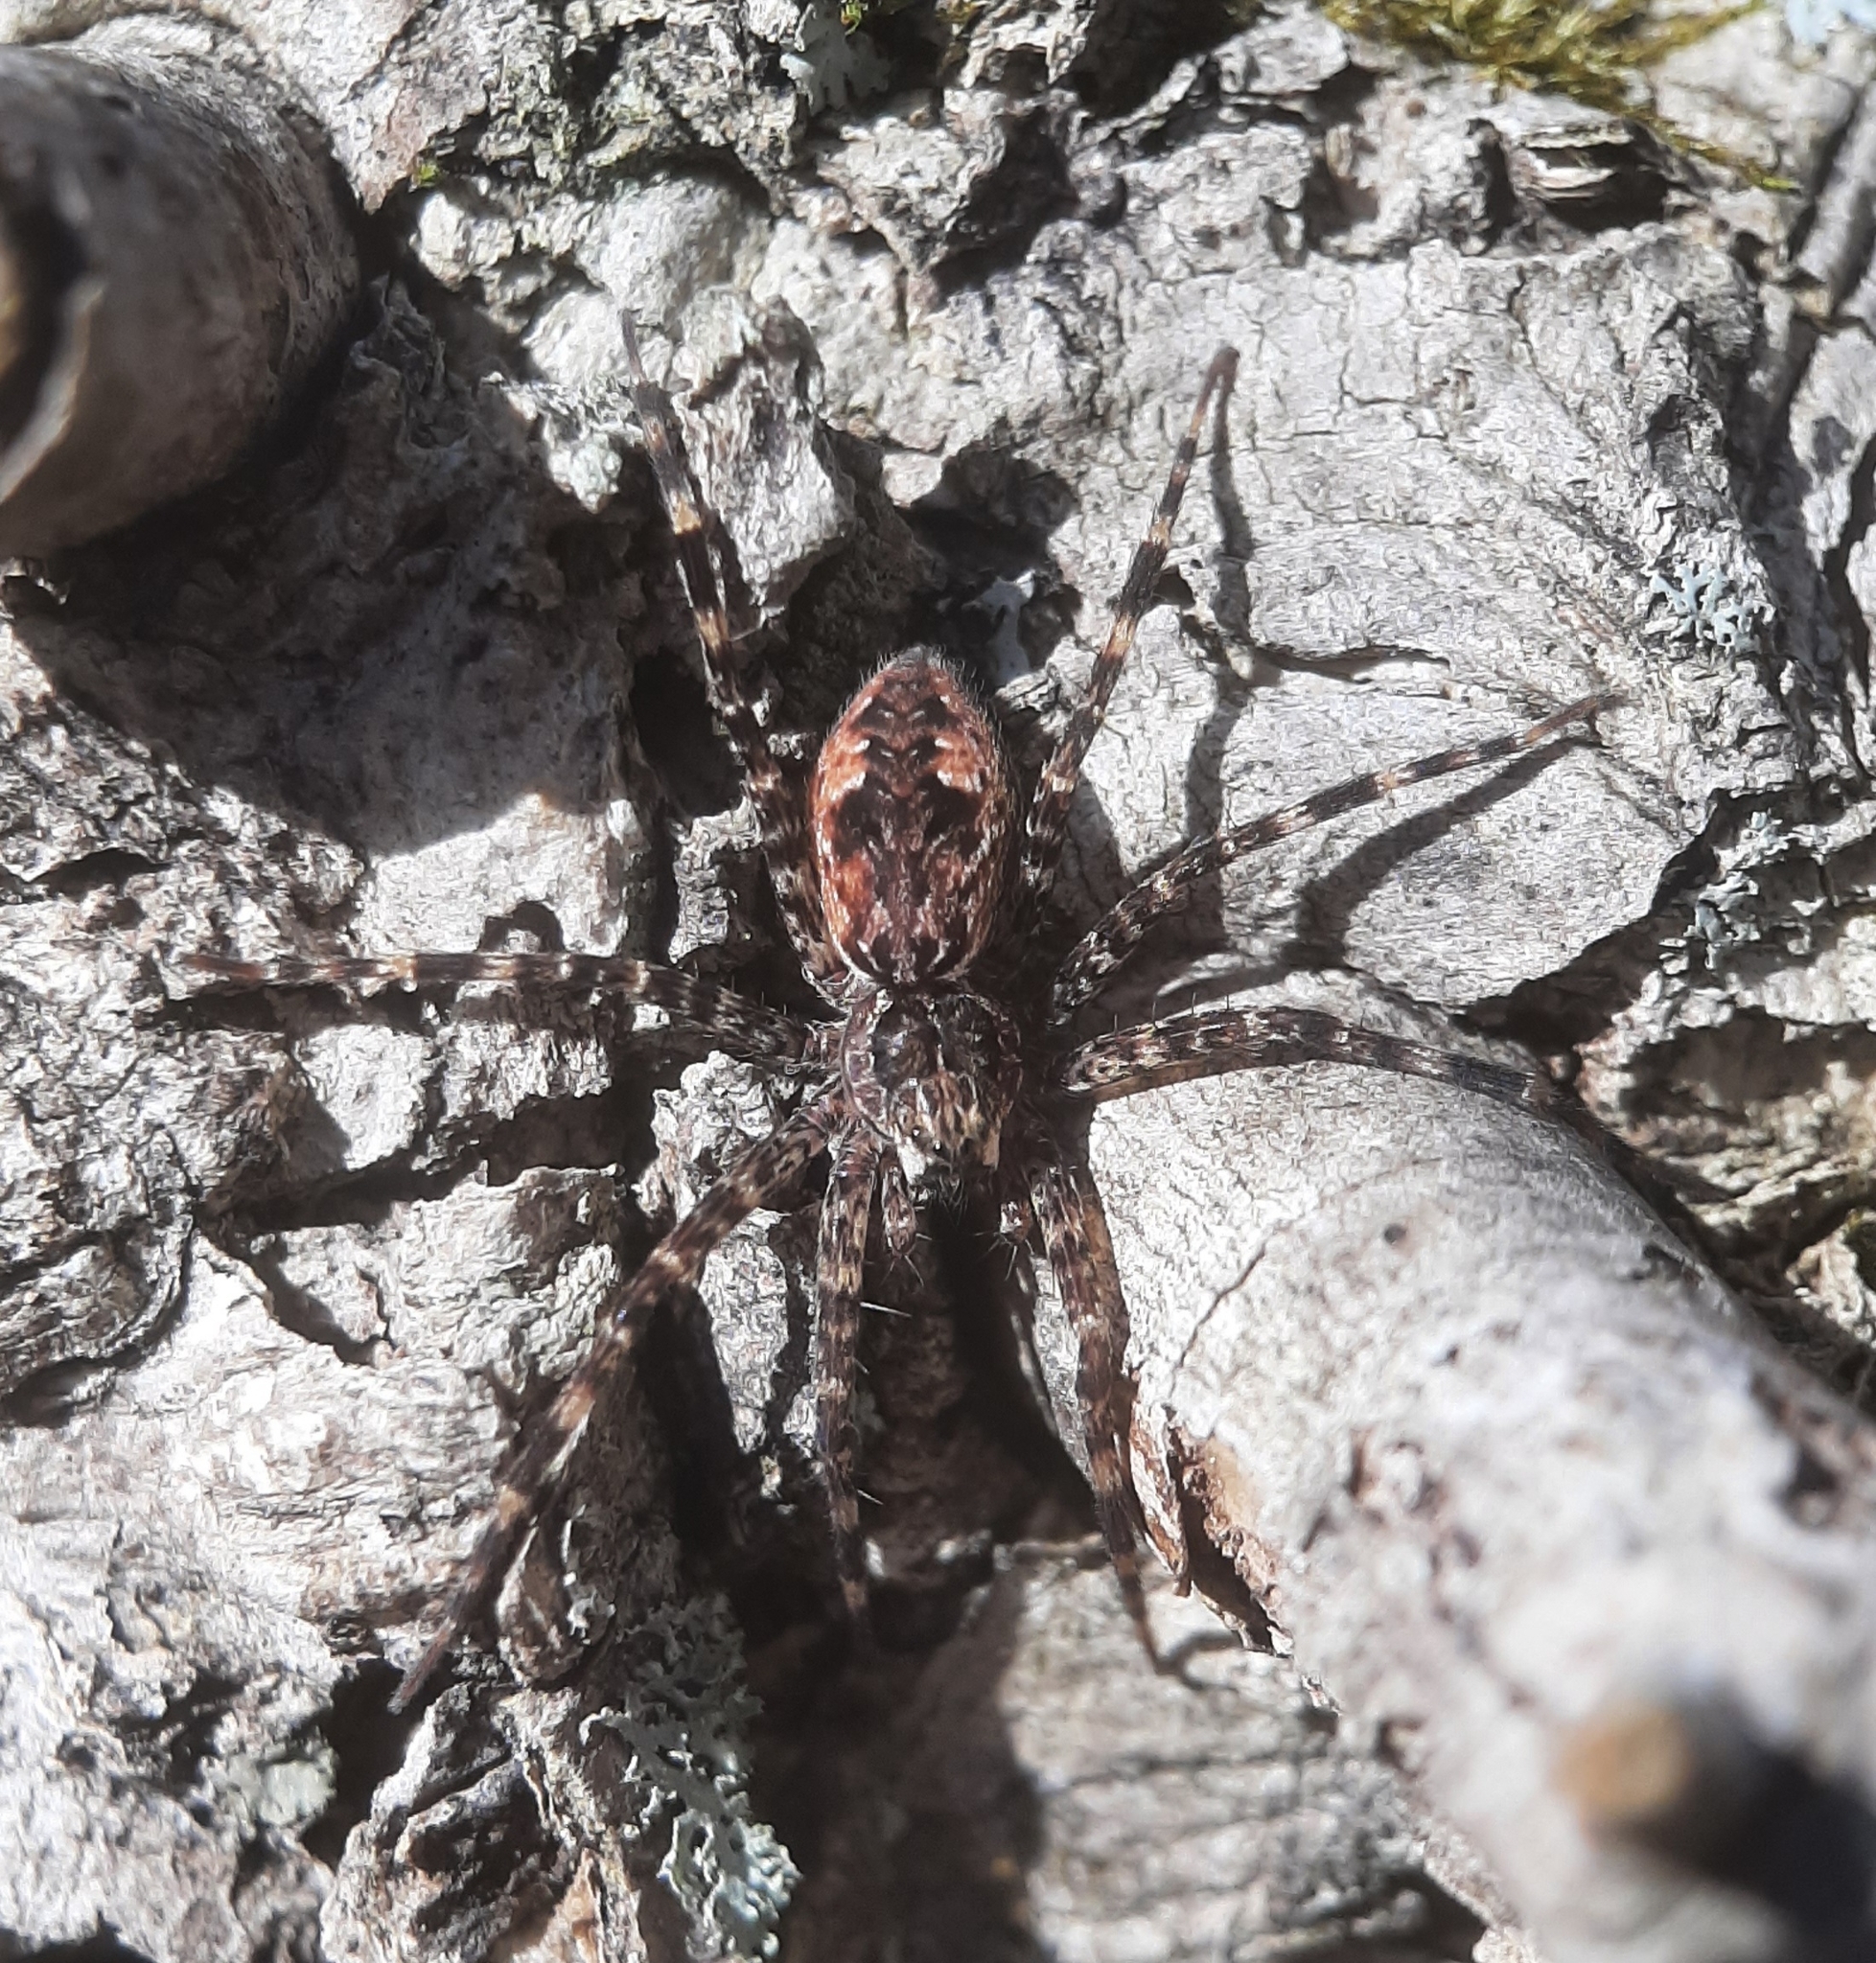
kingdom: Animalia
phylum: Arthropoda
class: Arachnida
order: Araneae
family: Pisauridae
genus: Dolomedes
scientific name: Dolomedes tenebrosus
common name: Dark fishing spider
